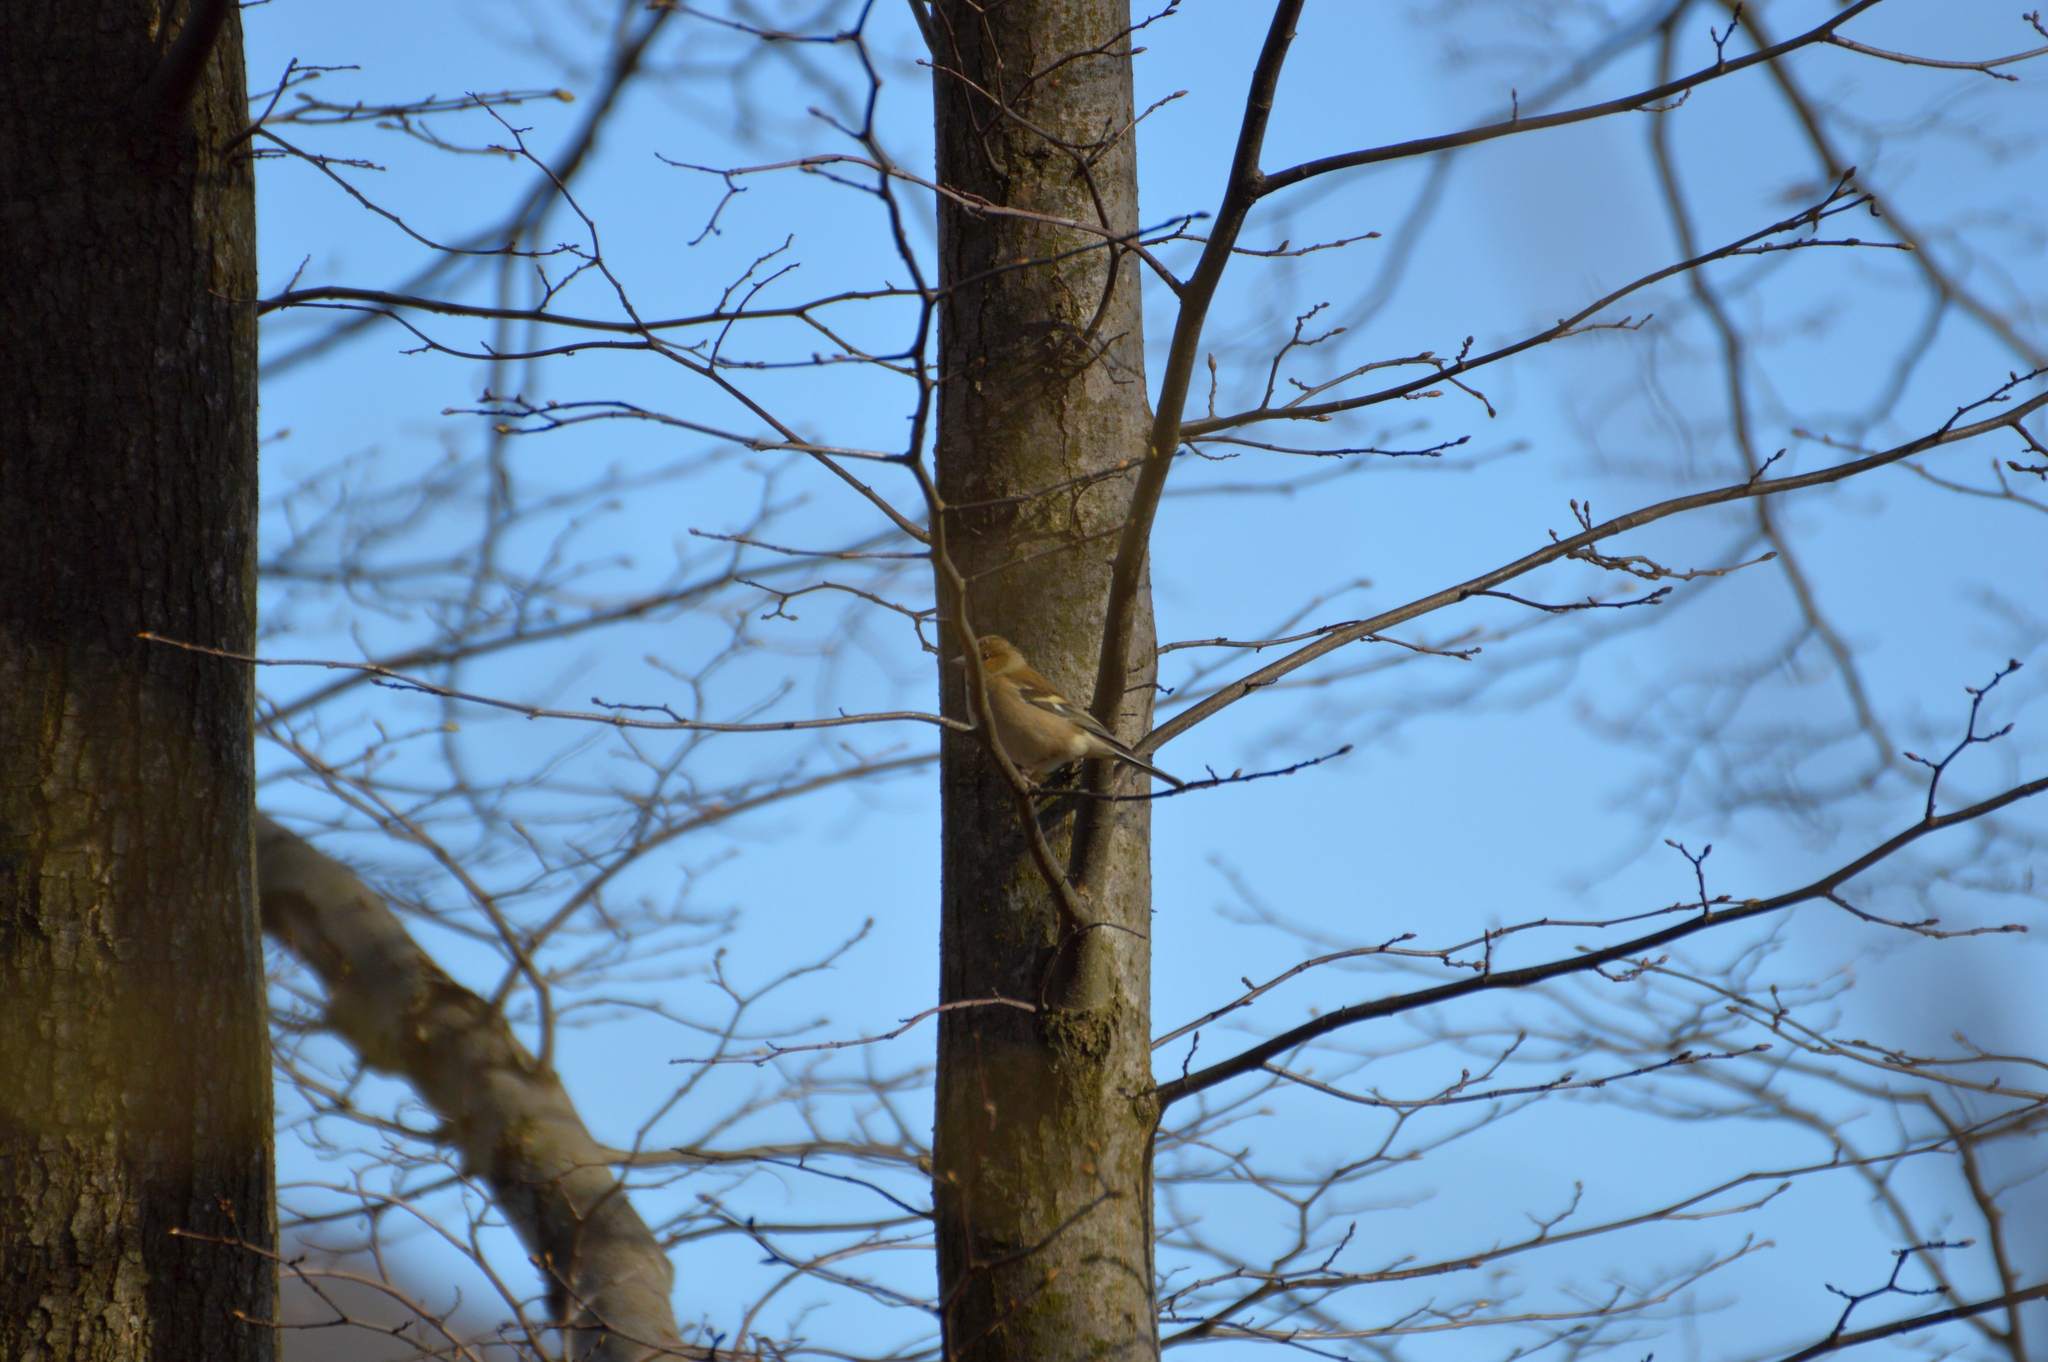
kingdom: Animalia
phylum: Chordata
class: Aves
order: Passeriformes
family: Fringillidae
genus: Fringilla
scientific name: Fringilla coelebs
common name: Common chaffinch
